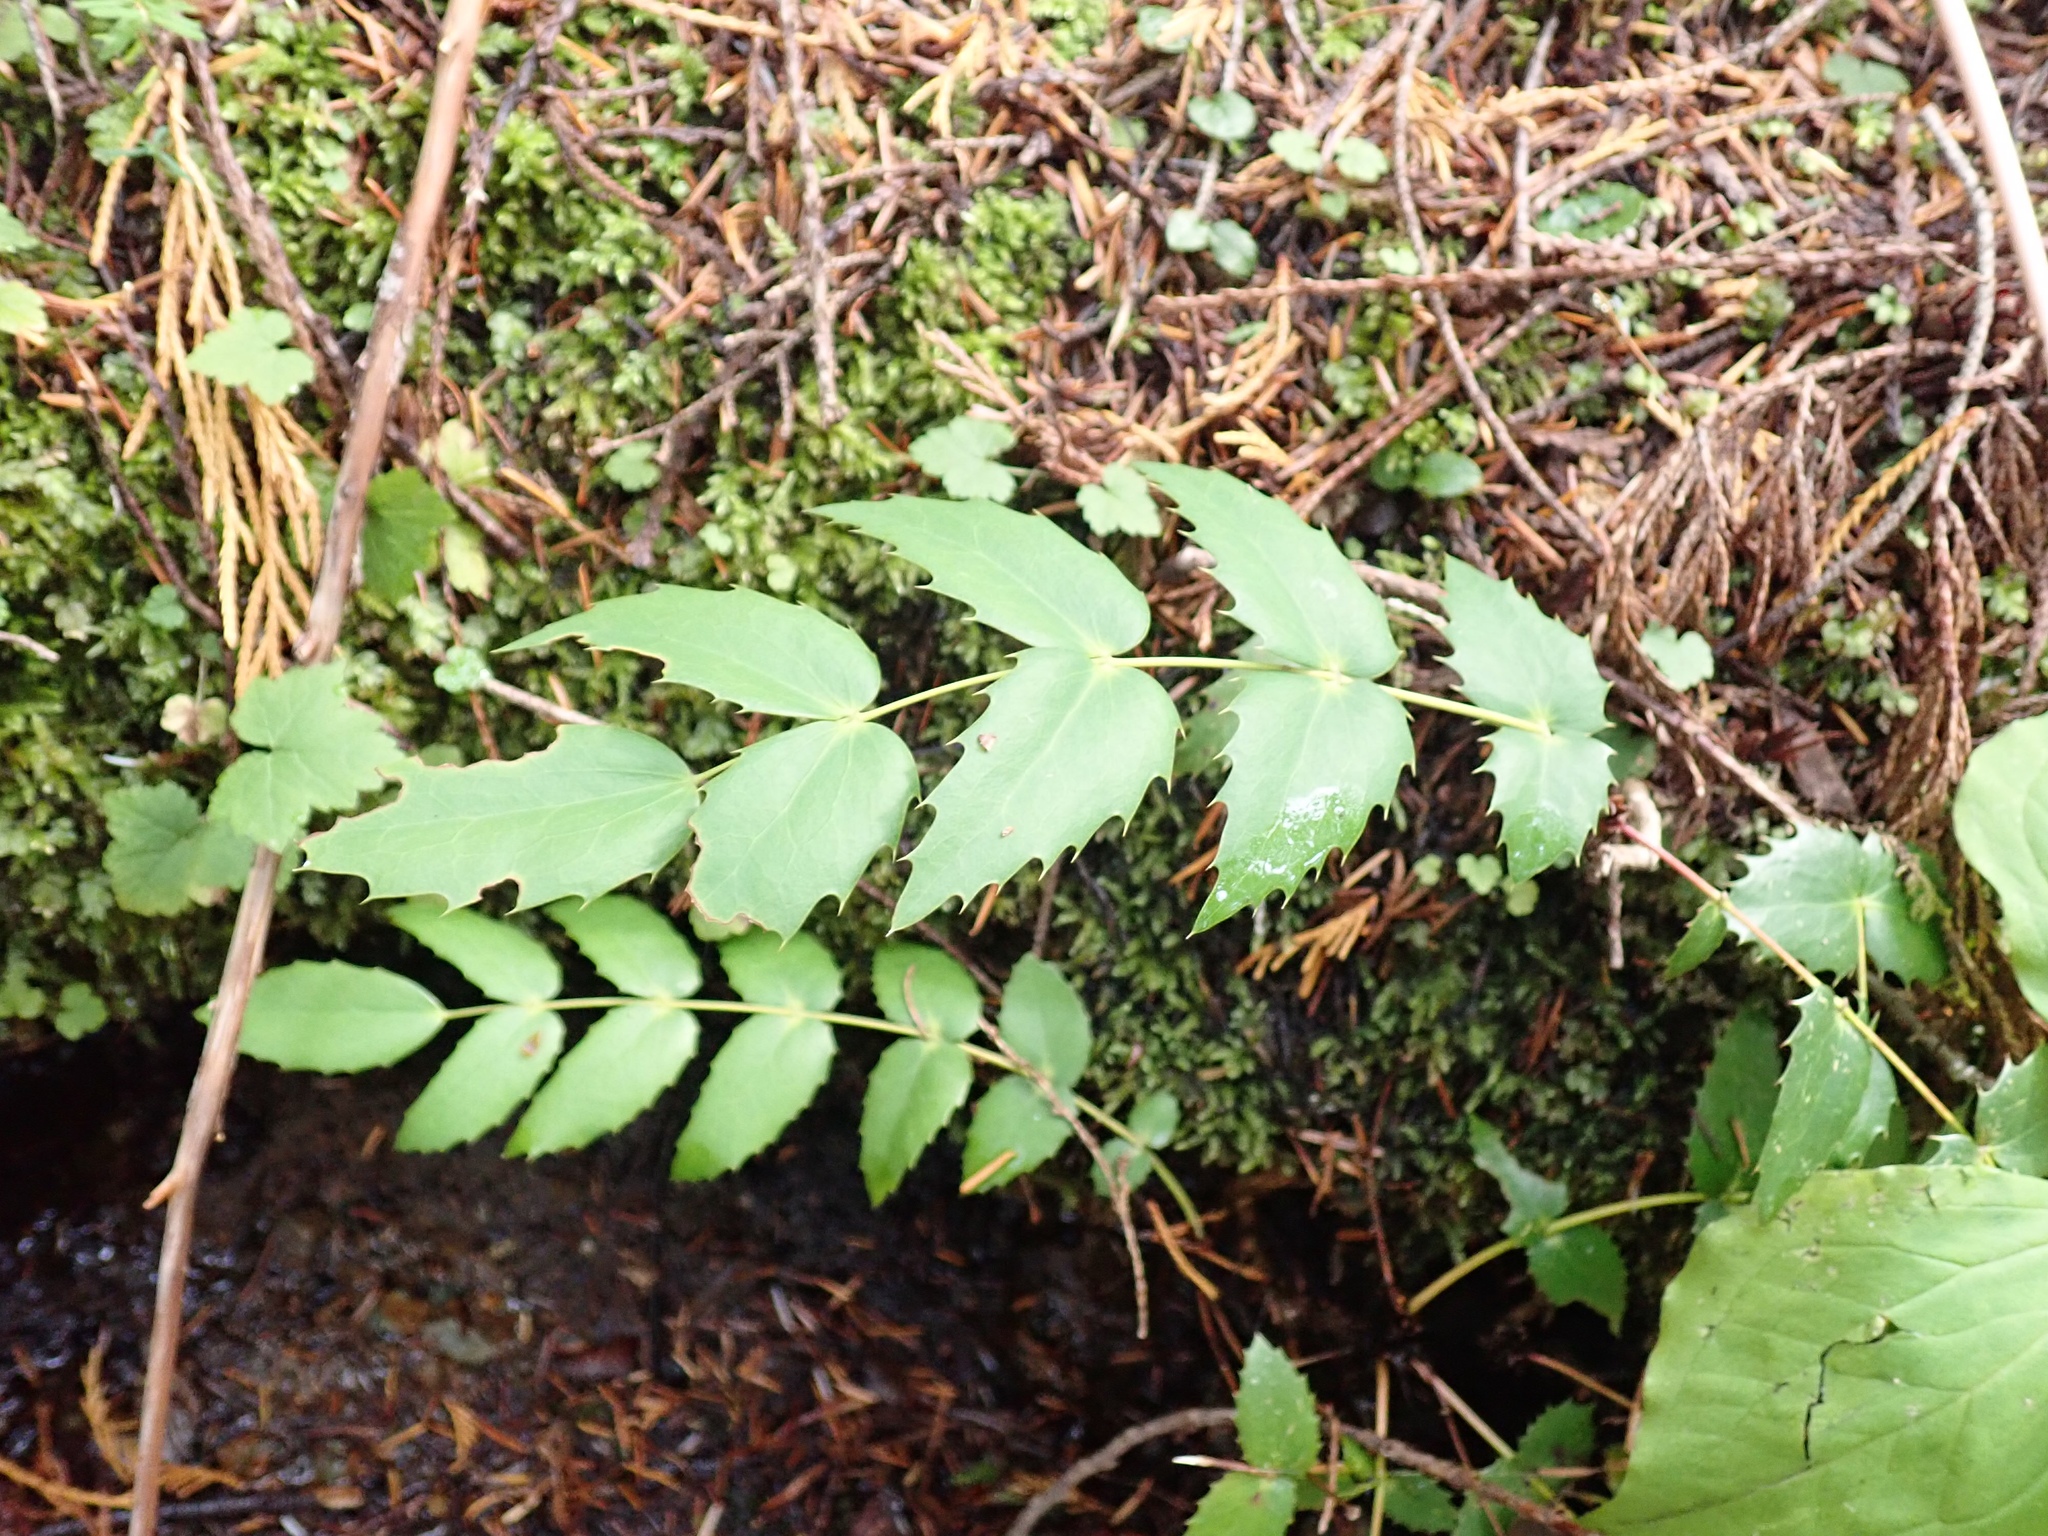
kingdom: Plantae
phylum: Tracheophyta
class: Magnoliopsida
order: Ranunculales
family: Berberidaceae
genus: Mahonia
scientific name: Mahonia nervosa
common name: Cascade oregon-grape
